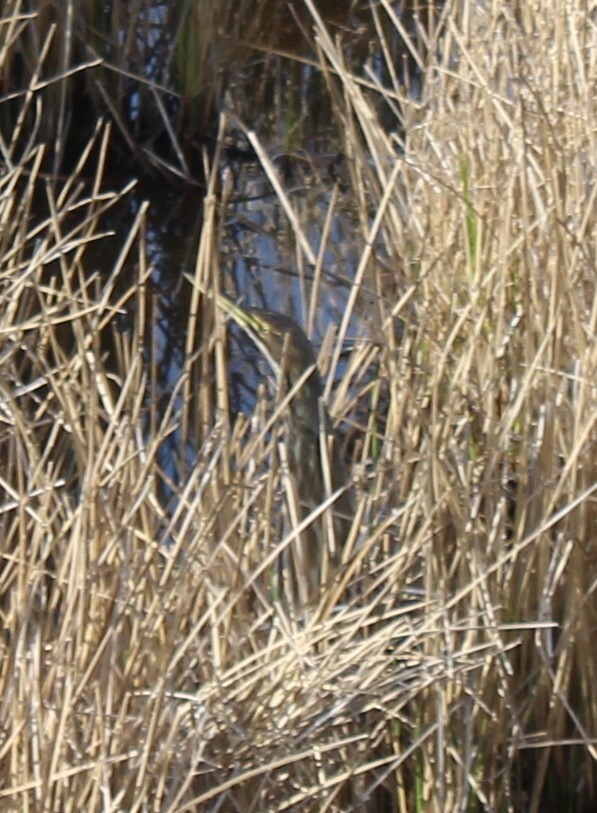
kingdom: Animalia
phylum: Chordata
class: Aves
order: Pelecaniformes
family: Ardeidae
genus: Botaurus
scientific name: Botaurus lentiginosus
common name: American bittern
